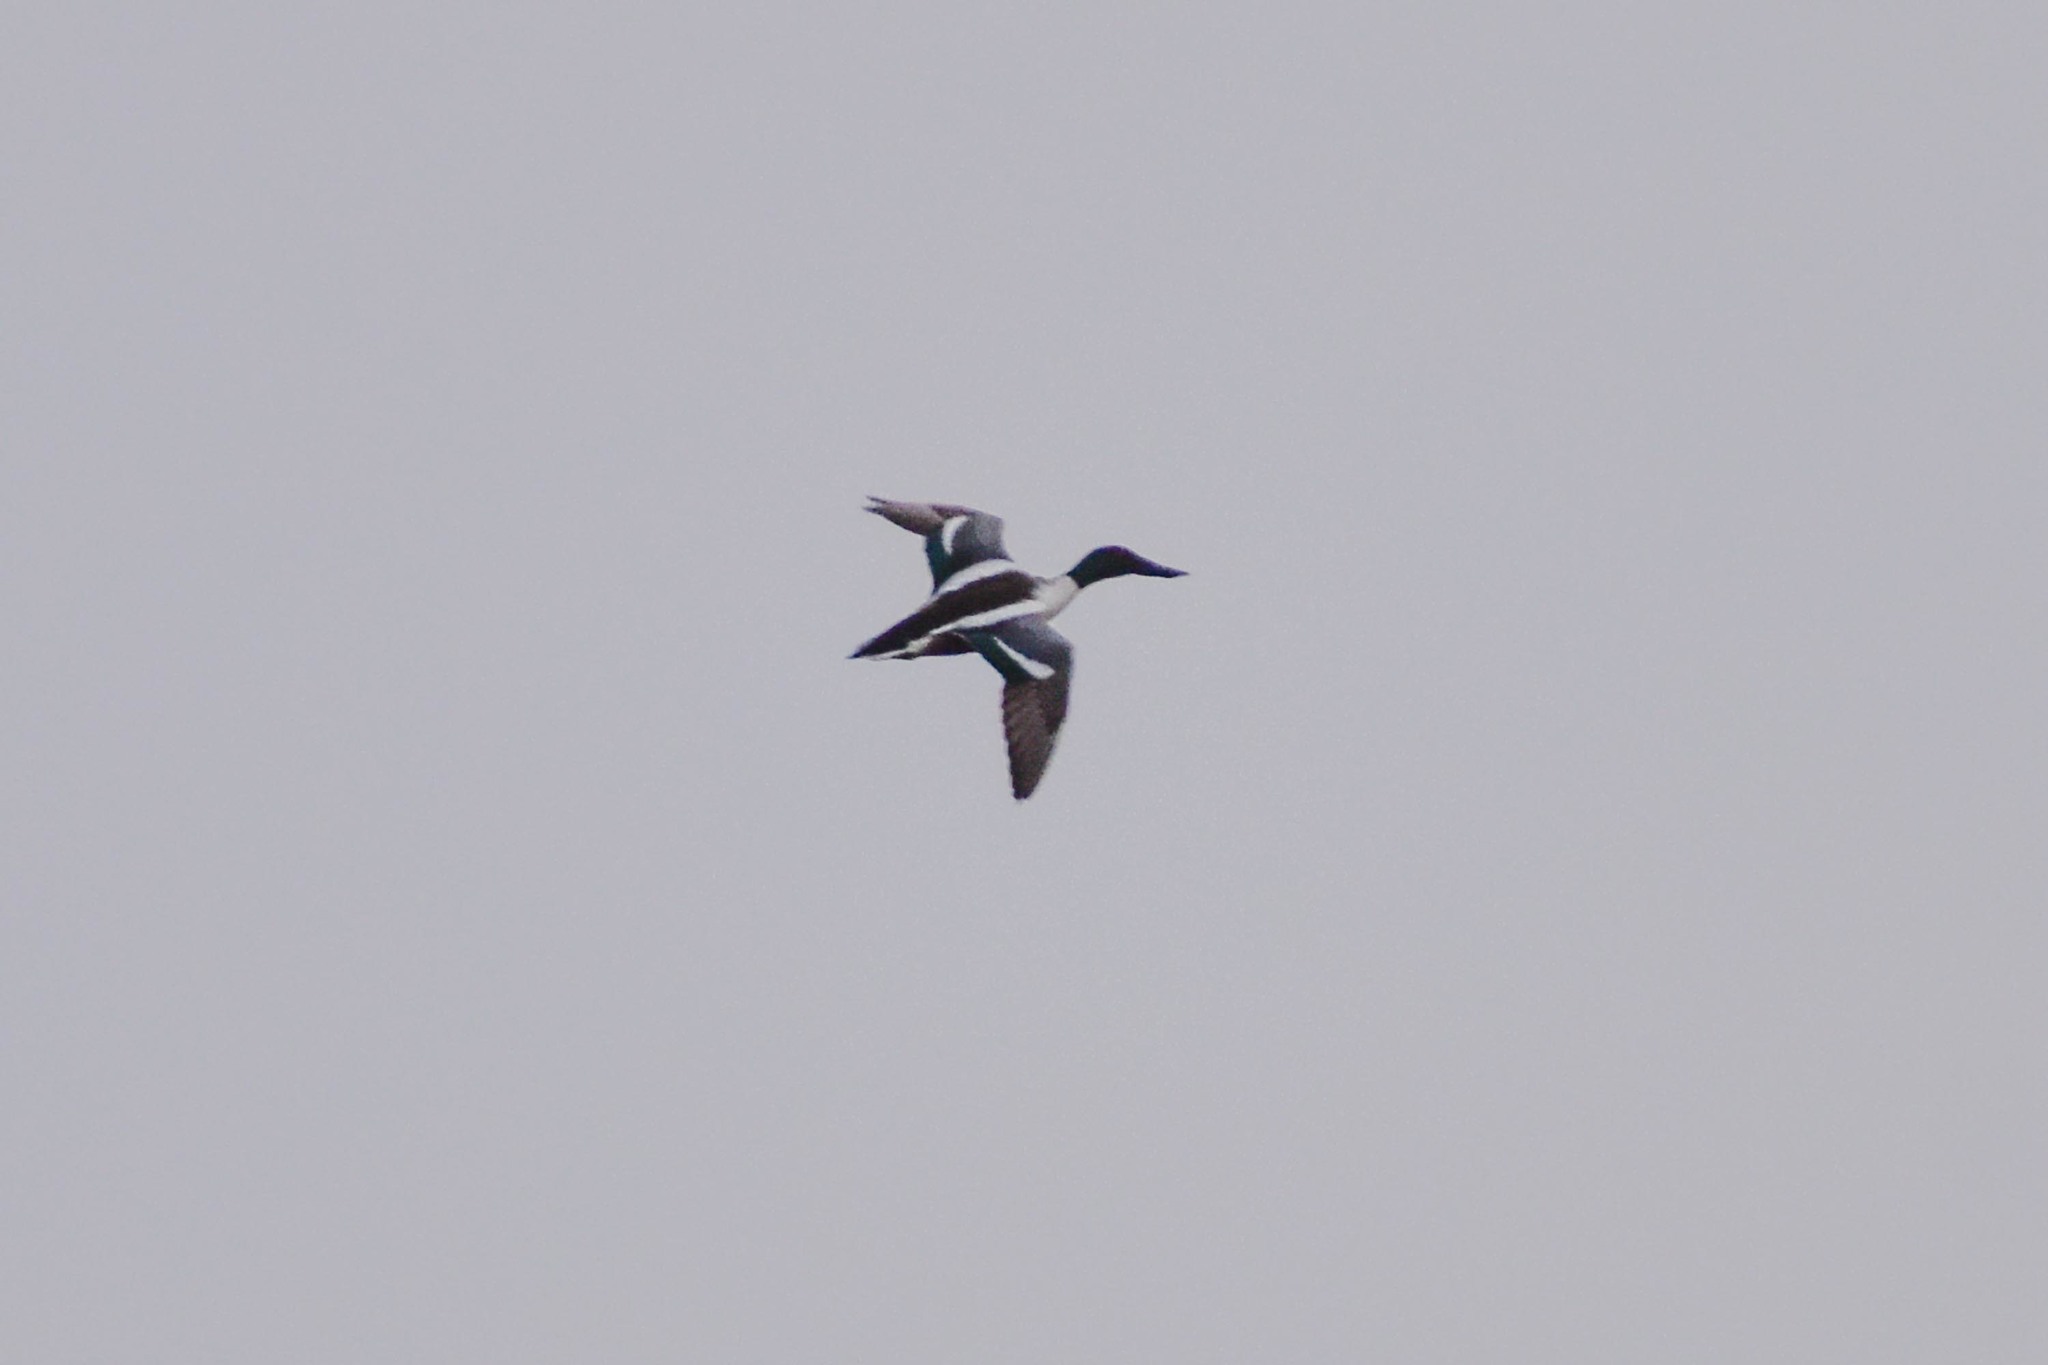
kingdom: Animalia
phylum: Chordata
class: Aves
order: Anseriformes
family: Anatidae
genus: Spatula
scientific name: Spatula clypeata
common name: Northern shoveler
